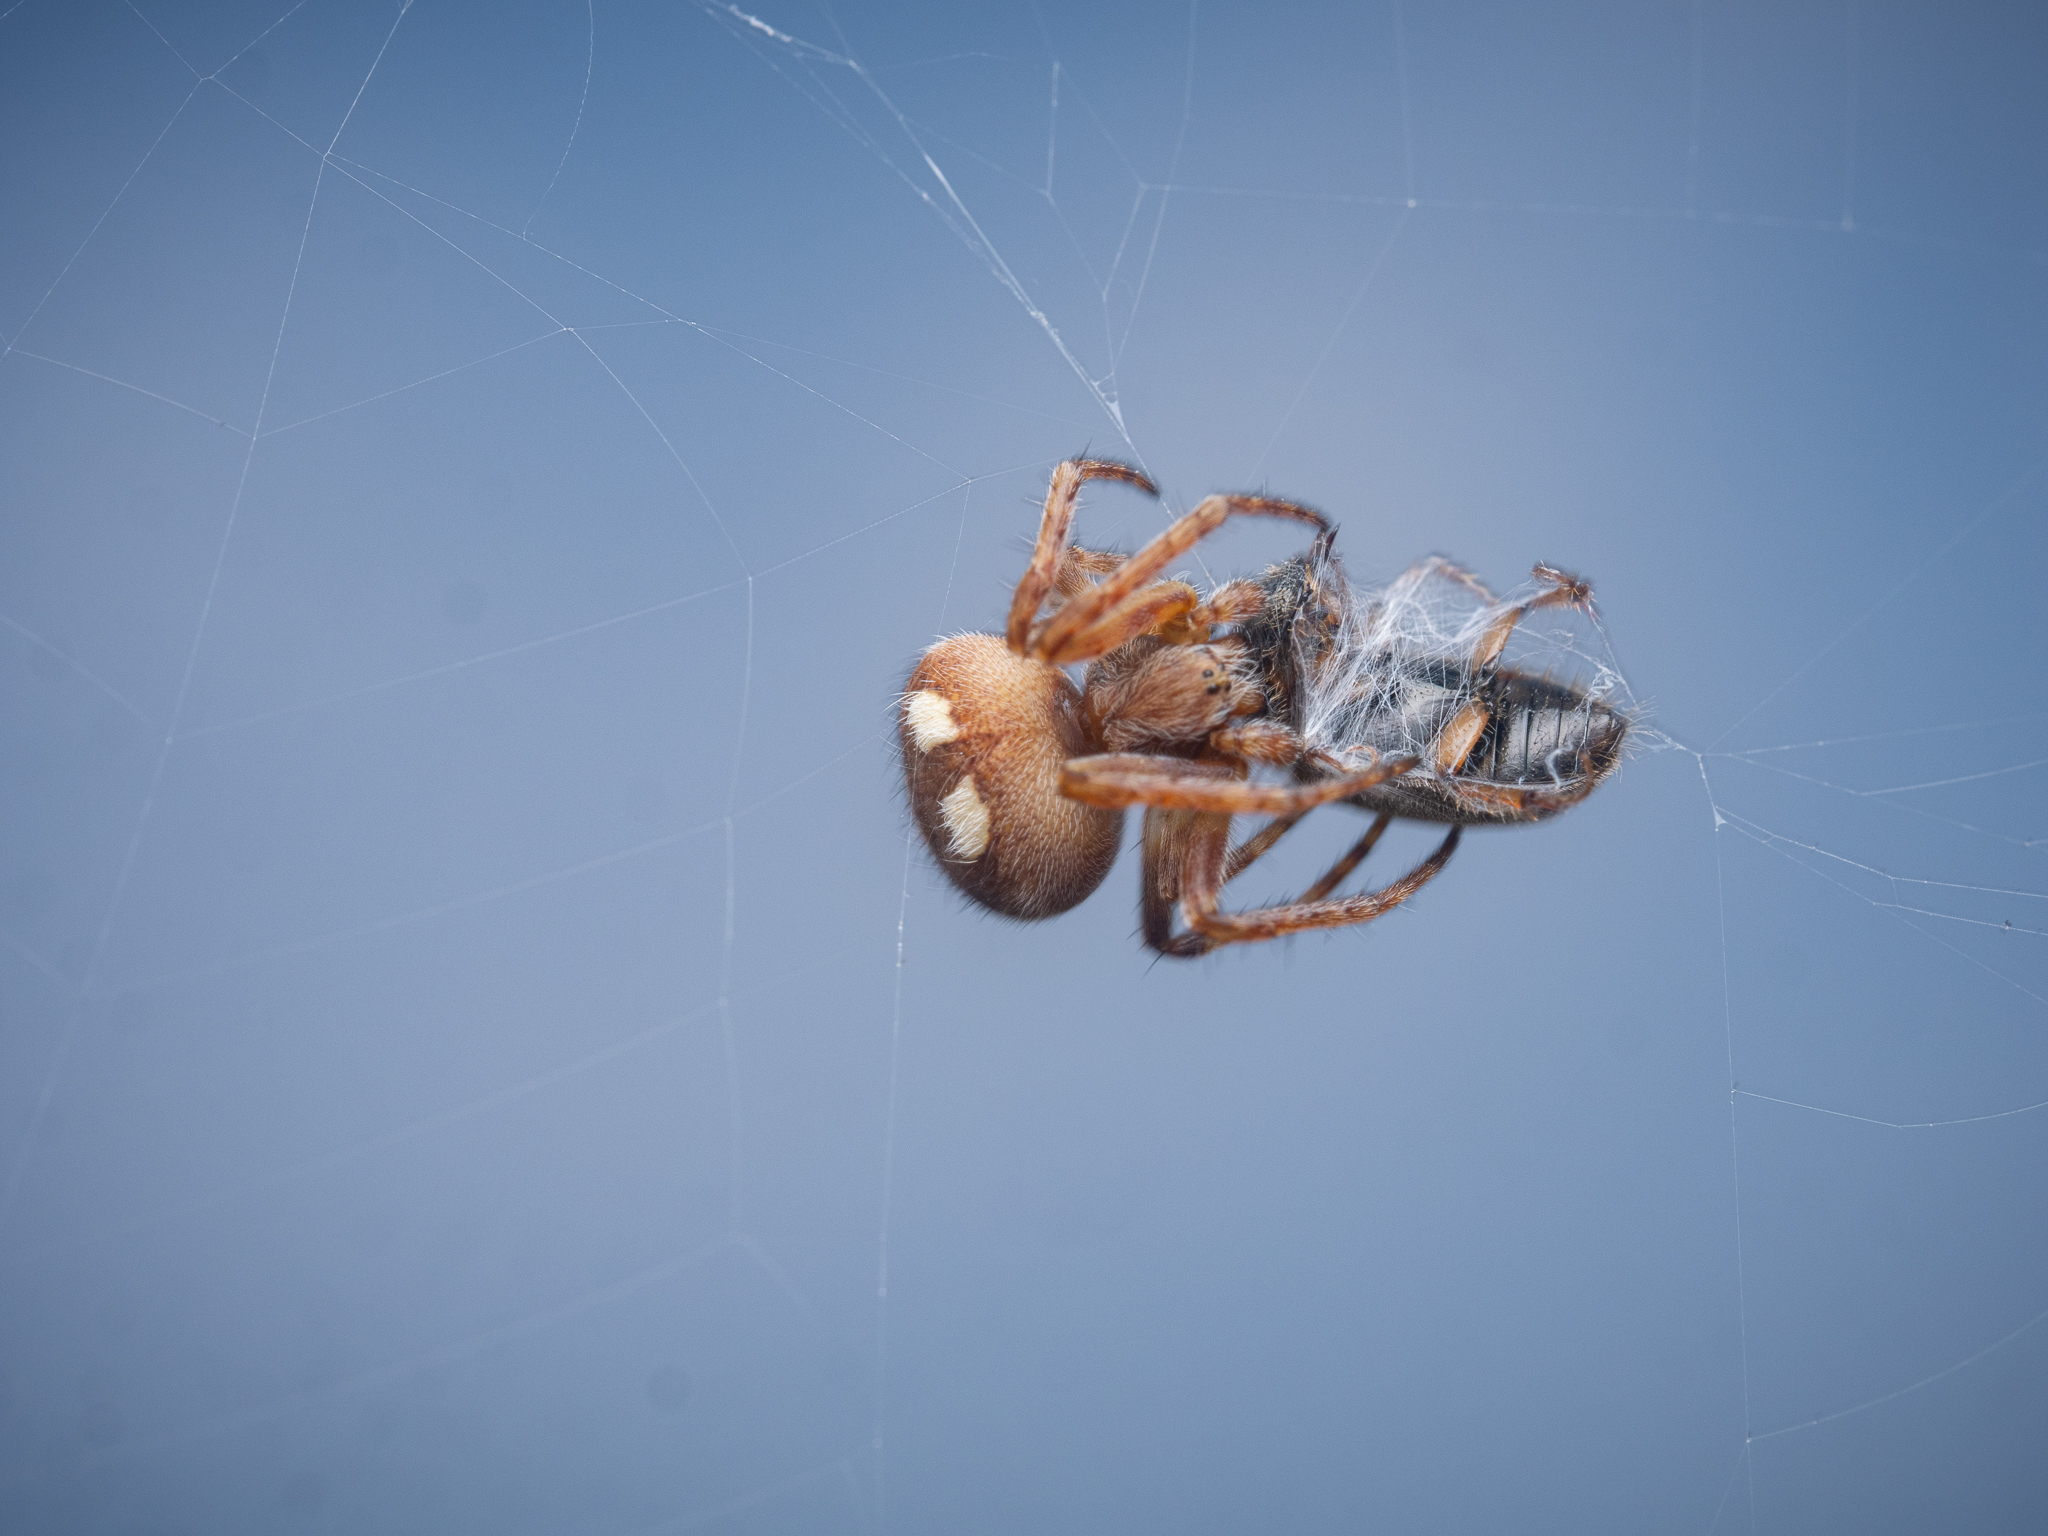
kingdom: Animalia
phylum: Arthropoda
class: Arachnida
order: Araneae
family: Araneidae
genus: Agalenatea
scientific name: Agalenatea redii
